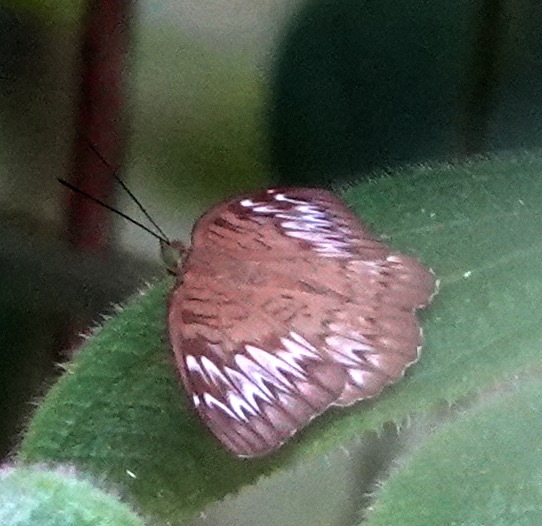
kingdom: Animalia
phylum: Arthropoda
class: Insecta
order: Lepidoptera
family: Nymphalidae
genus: Tanaecia
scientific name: Tanaecia pelea
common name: Malay viscount
